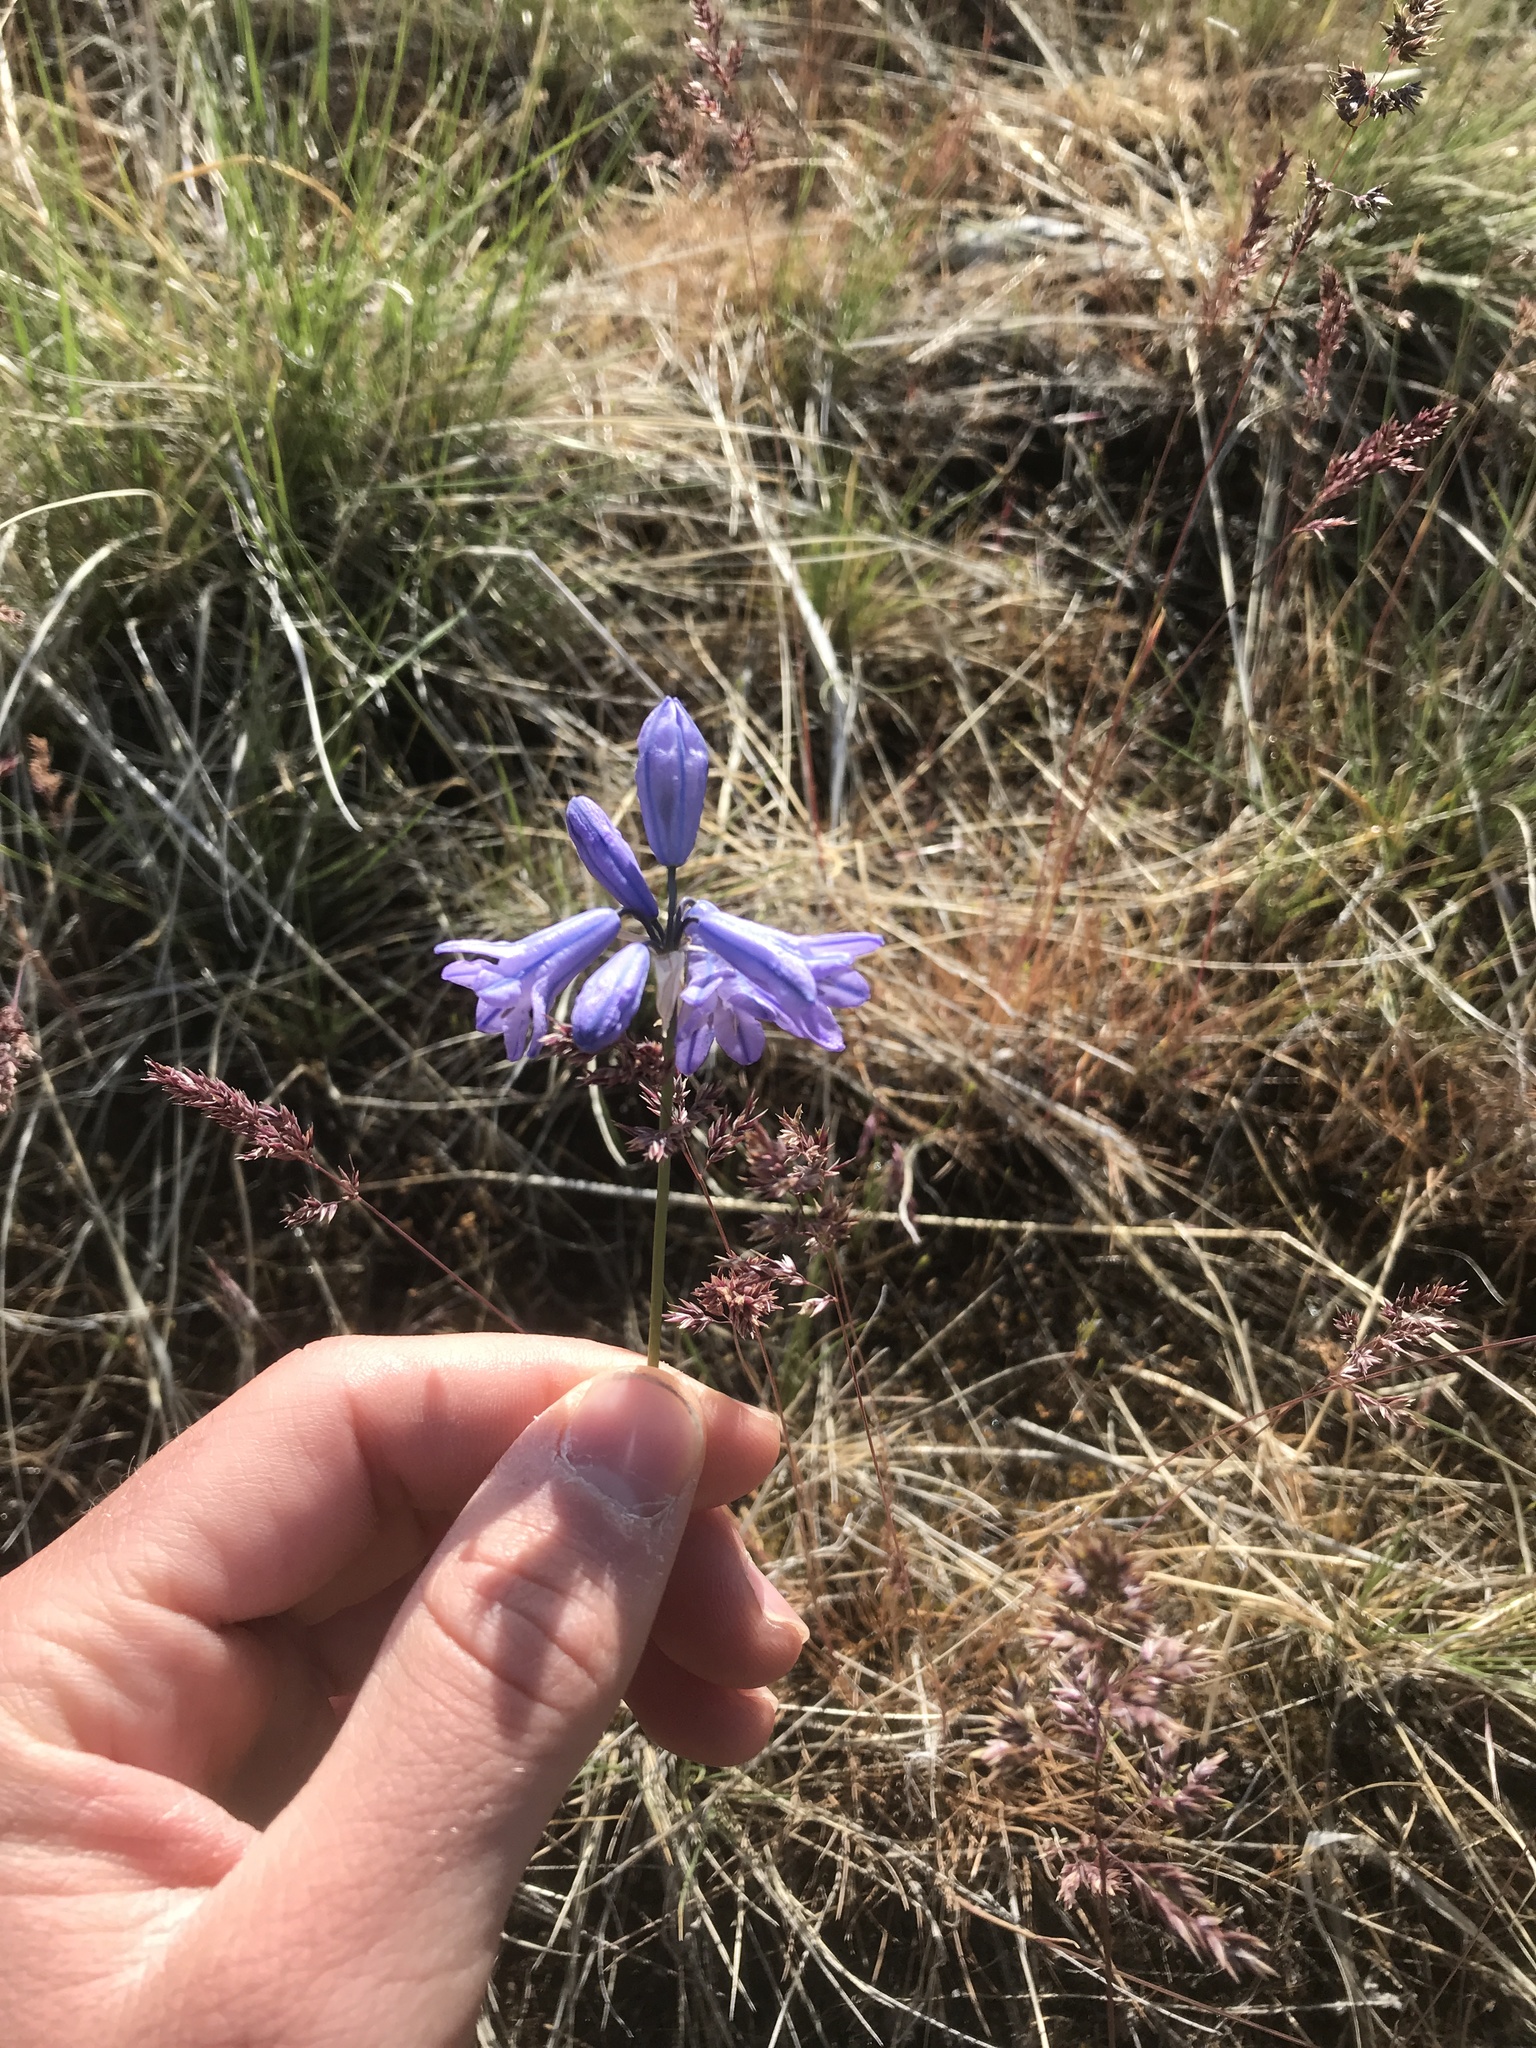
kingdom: Plantae
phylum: Tracheophyta
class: Liliopsida
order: Asparagales
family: Asparagaceae
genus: Triteleia
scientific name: Triteleia grandiflora
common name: Wild hyacinth
